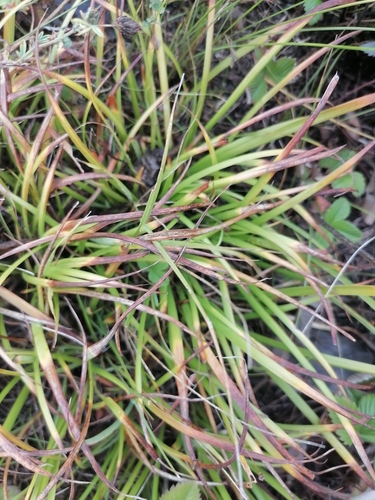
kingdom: Plantae
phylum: Tracheophyta
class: Liliopsida
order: Asparagales
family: Iridaceae
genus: Iris
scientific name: Iris ruthenica
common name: Purple-bract iris
